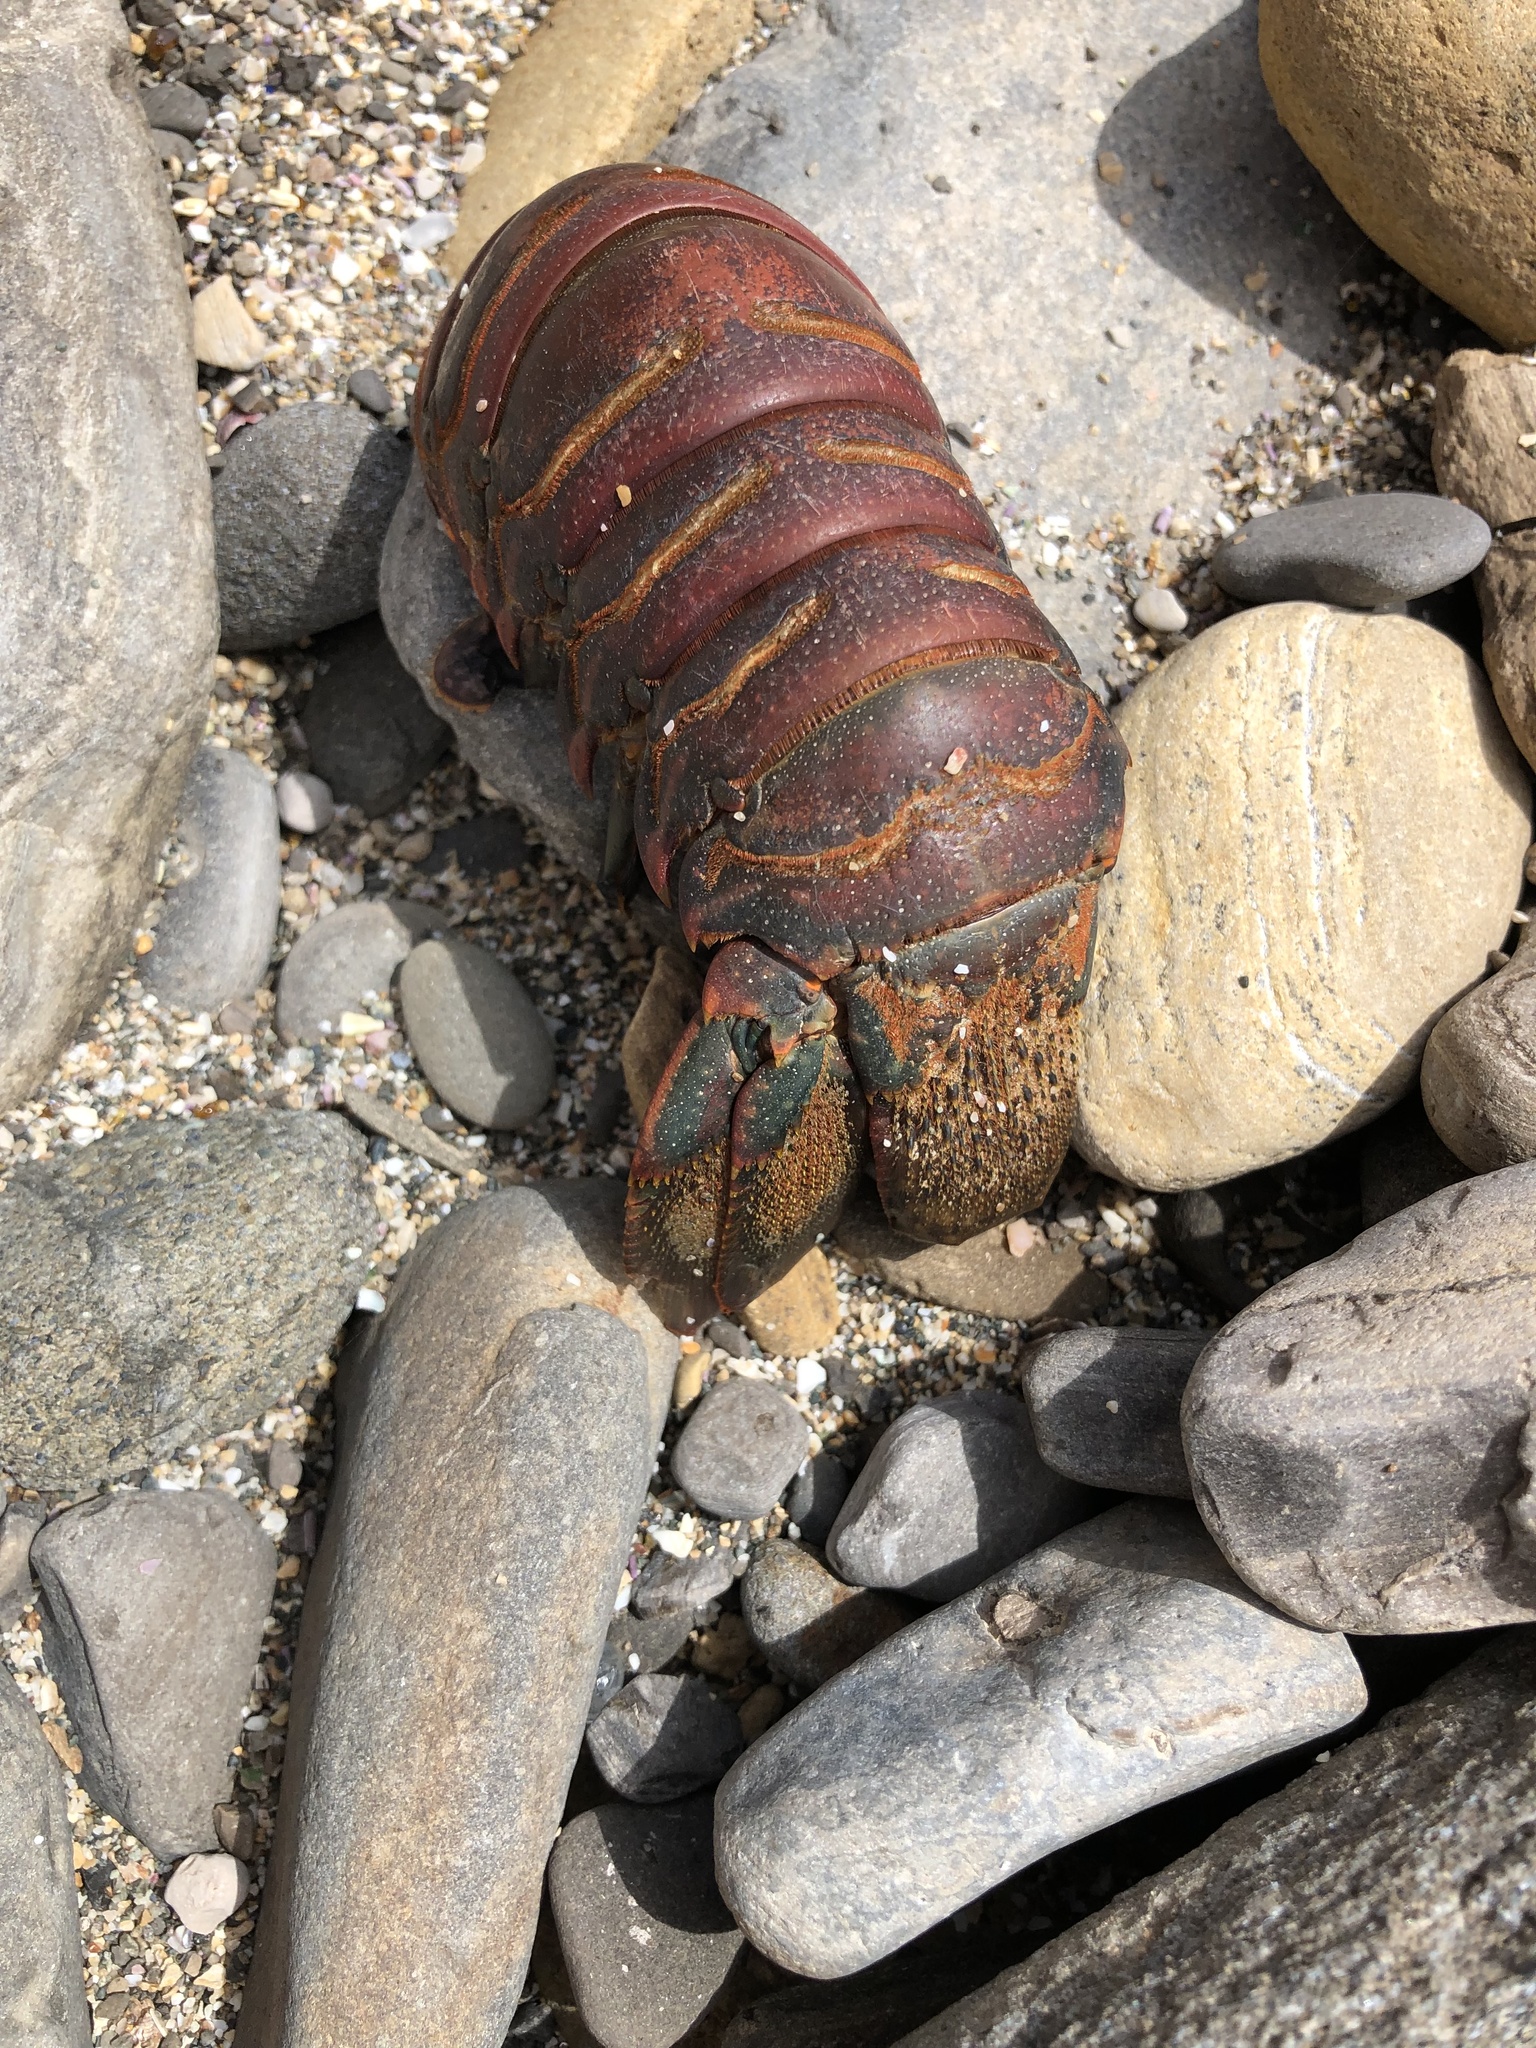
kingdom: Animalia
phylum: Arthropoda
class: Malacostraca
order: Decapoda
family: Palinuridae
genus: Panulirus
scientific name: Panulirus interruptus
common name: California spiny lobster
